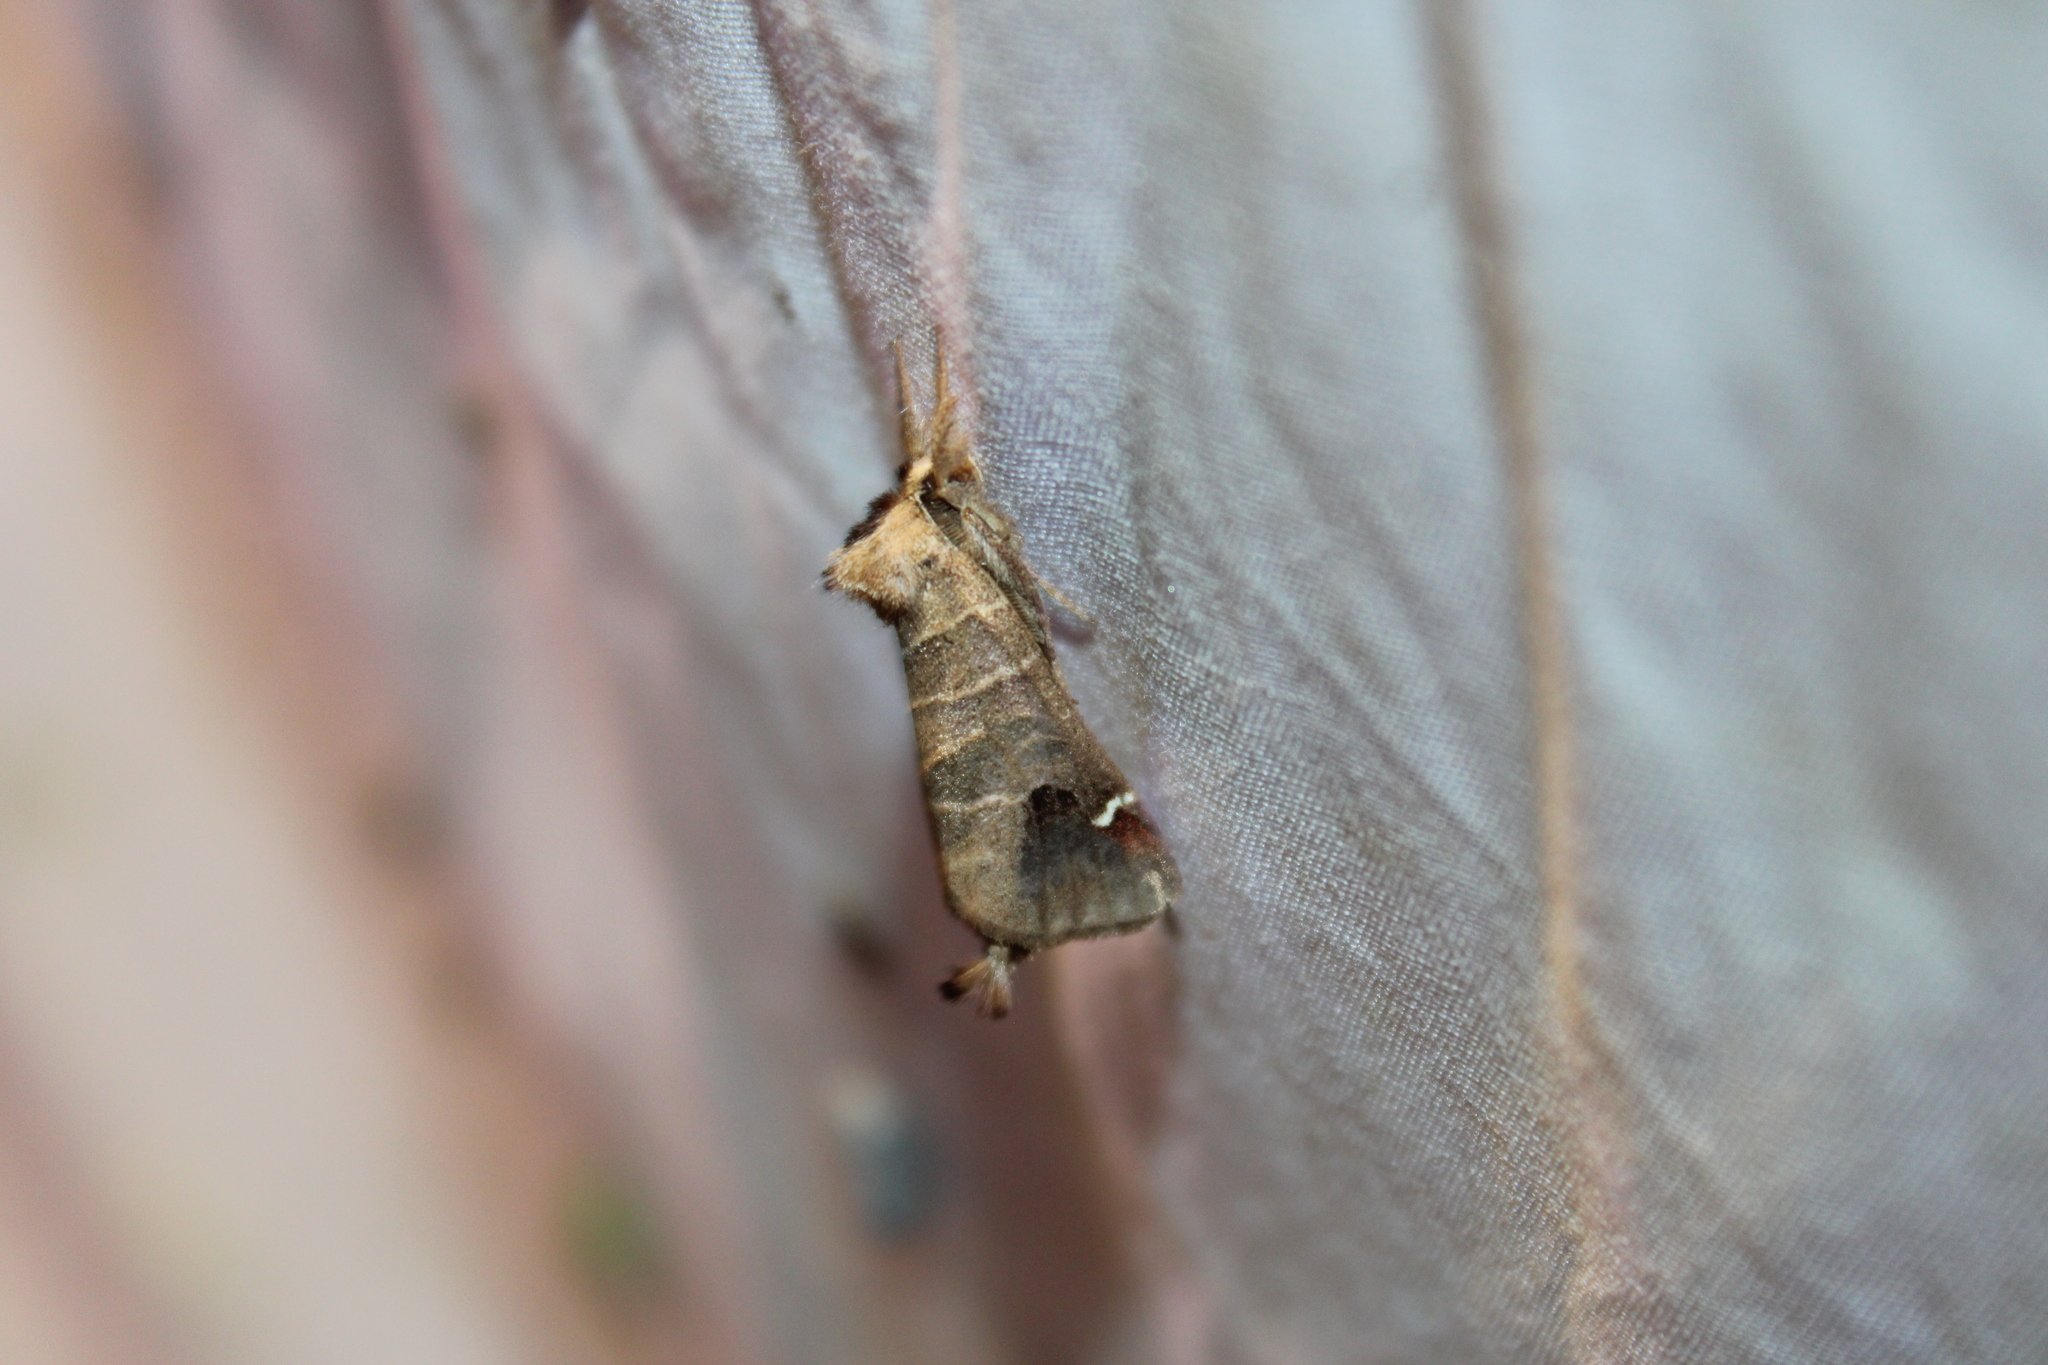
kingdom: Animalia
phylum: Arthropoda
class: Insecta
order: Lepidoptera
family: Notodontidae
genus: Clostera
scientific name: Clostera albosigma
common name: Sigmoid prominent
